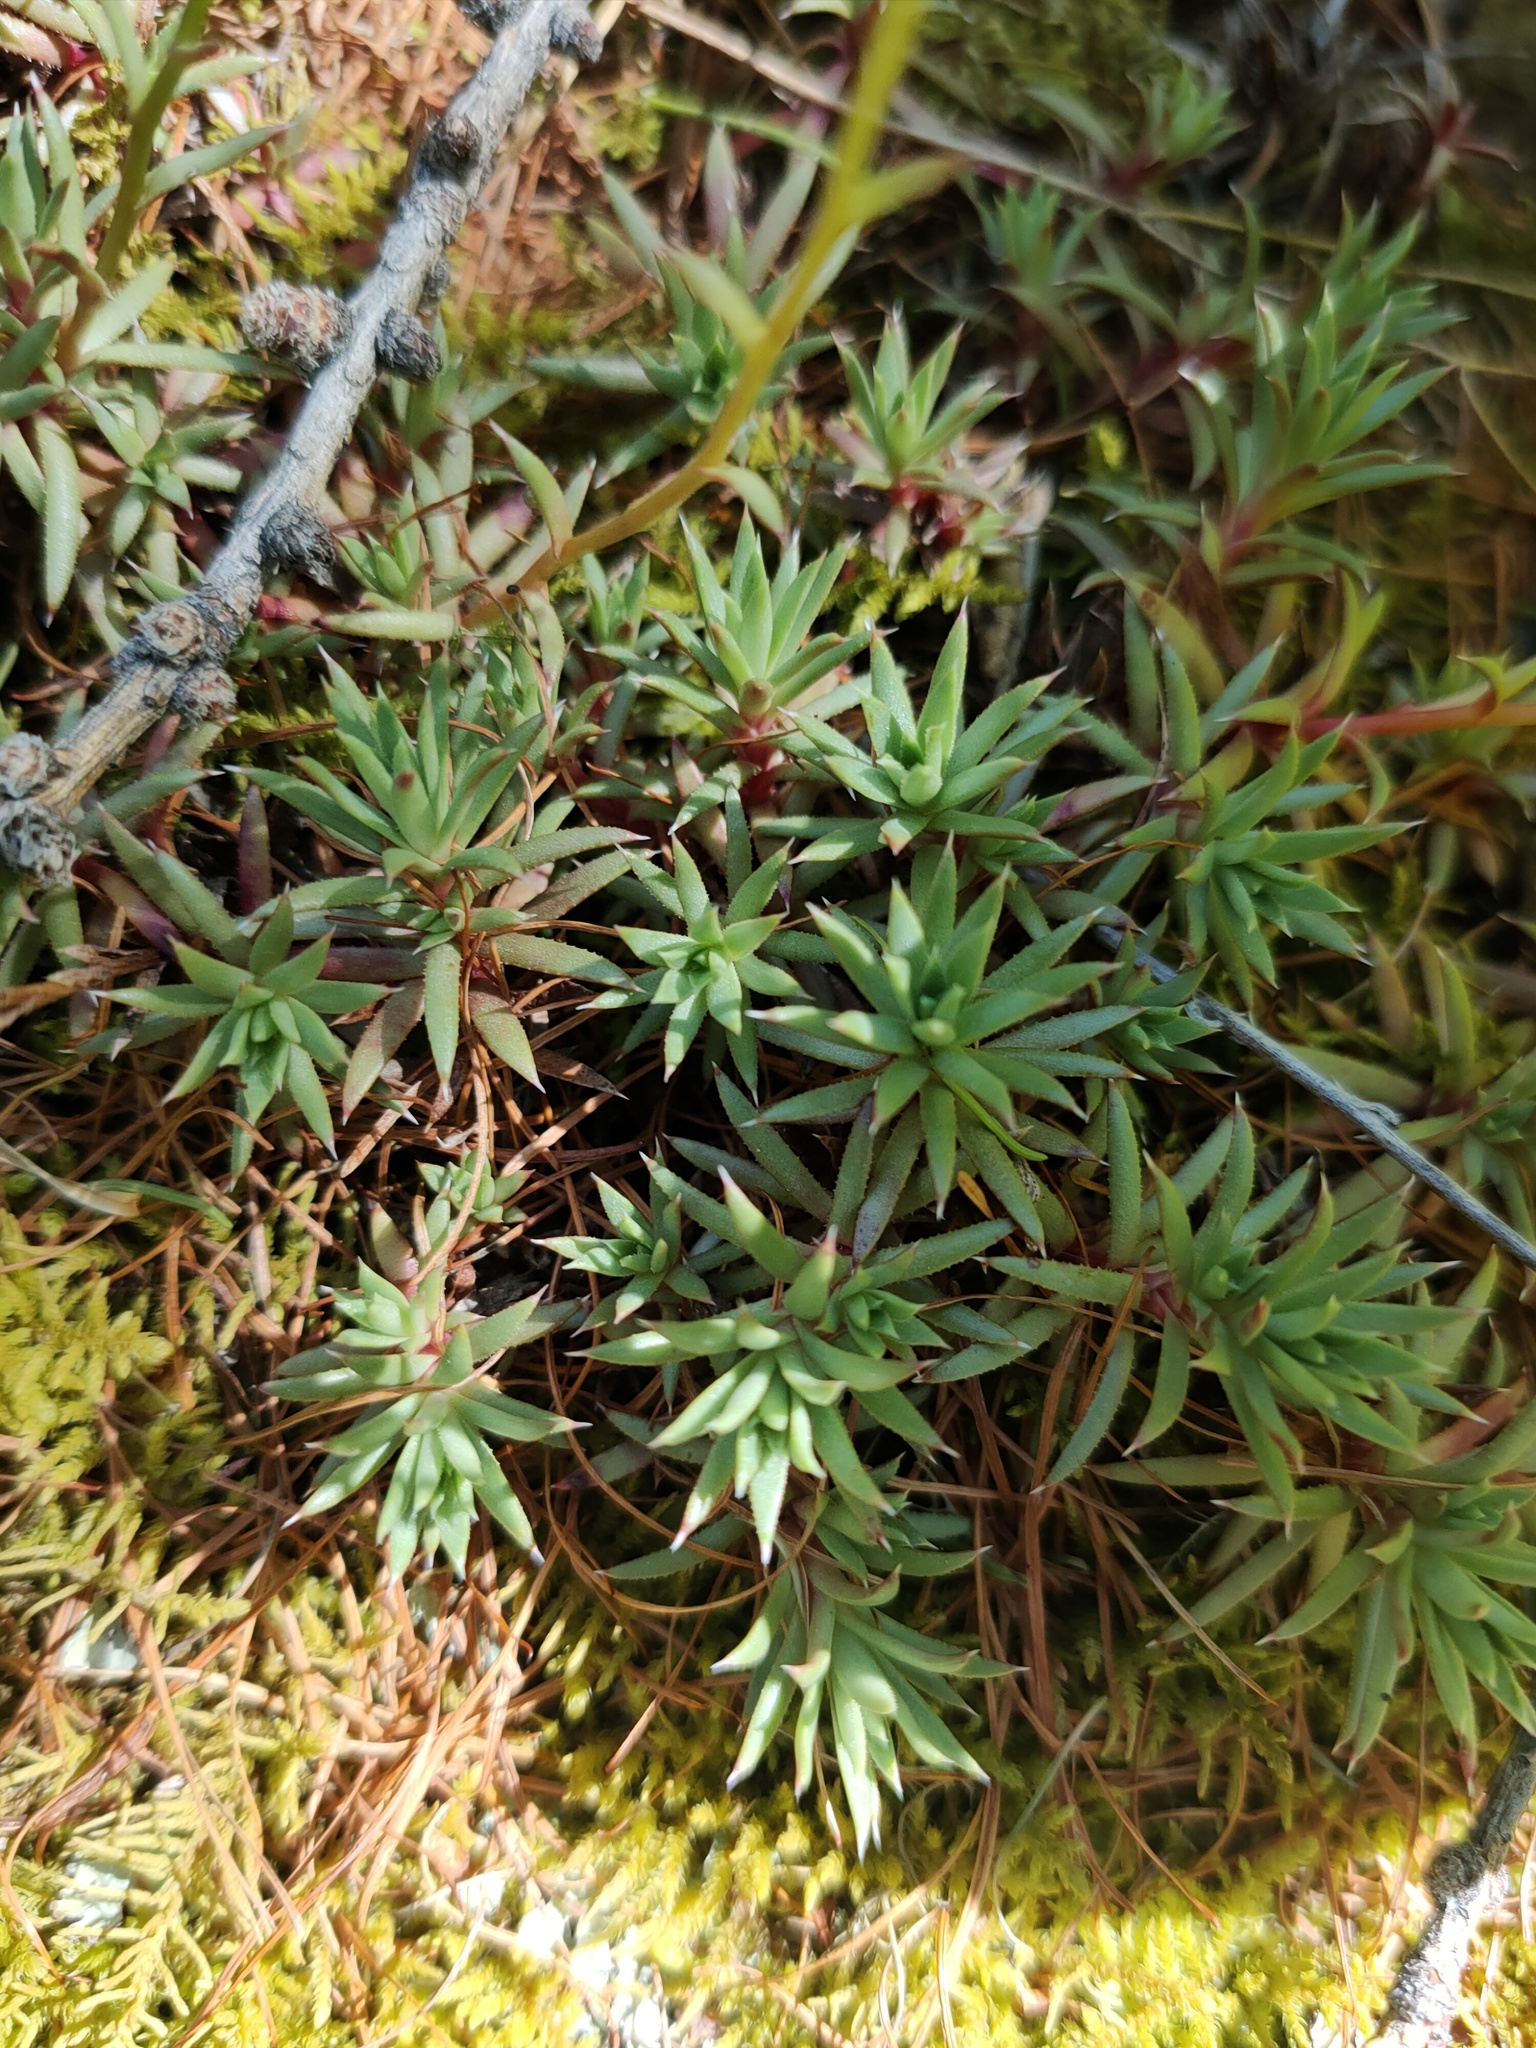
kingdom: Plantae
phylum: Tracheophyta
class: Magnoliopsida
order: Saxifragales
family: Saxifragaceae
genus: Saxifraga
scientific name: Saxifraga
